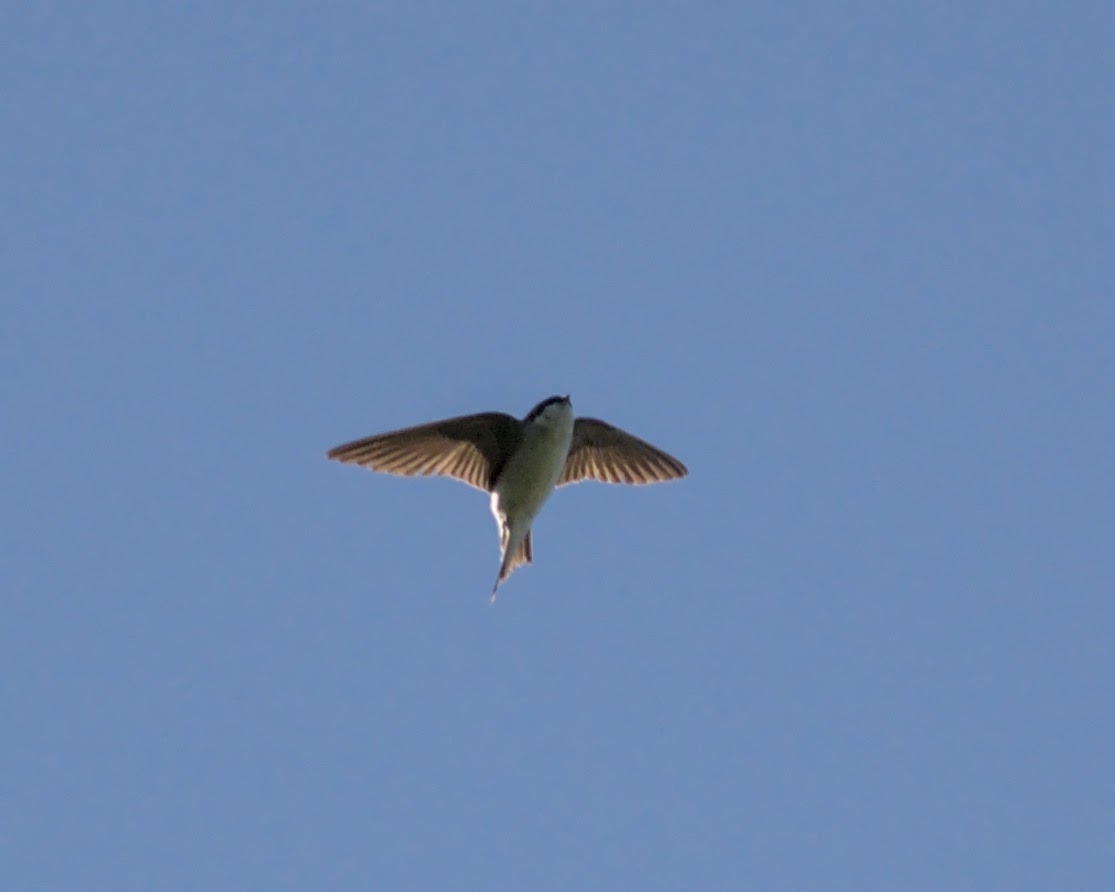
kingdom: Animalia
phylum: Chordata
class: Aves
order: Passeriformes
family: Hirundinidae
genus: Delichon
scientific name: Delichon urbicum
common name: Common house martin
